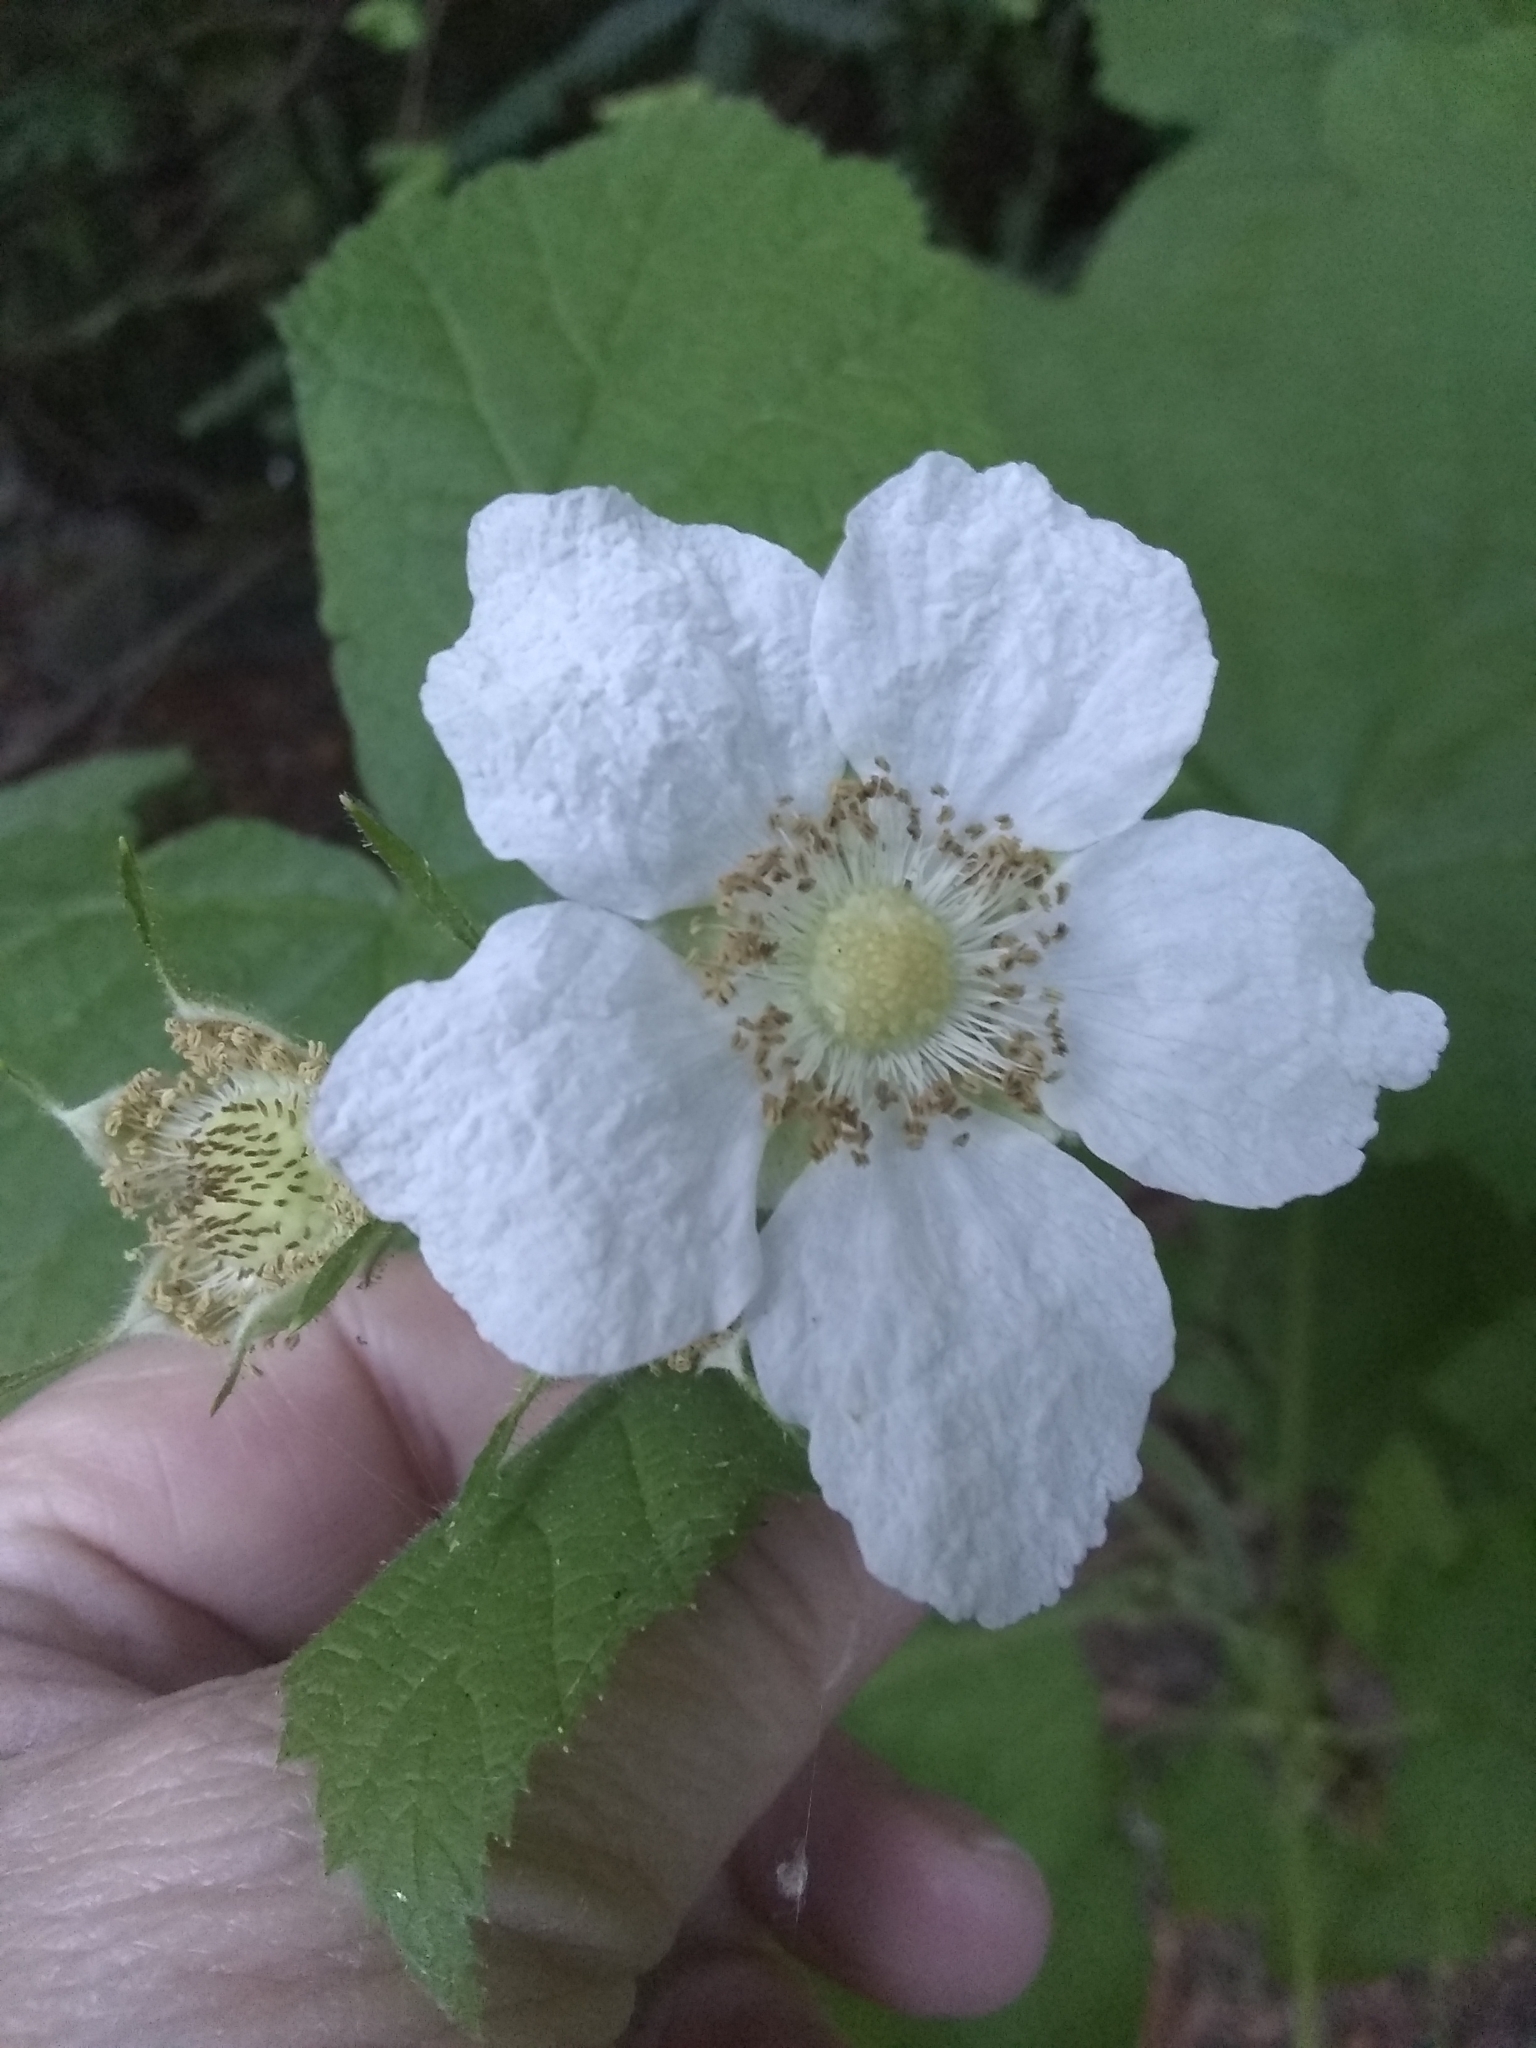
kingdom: Plantae
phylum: Tracheophyta
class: Magnoliopsida
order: Rosales
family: Rosaceae
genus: Rubus
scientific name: Rubus parviflorus
